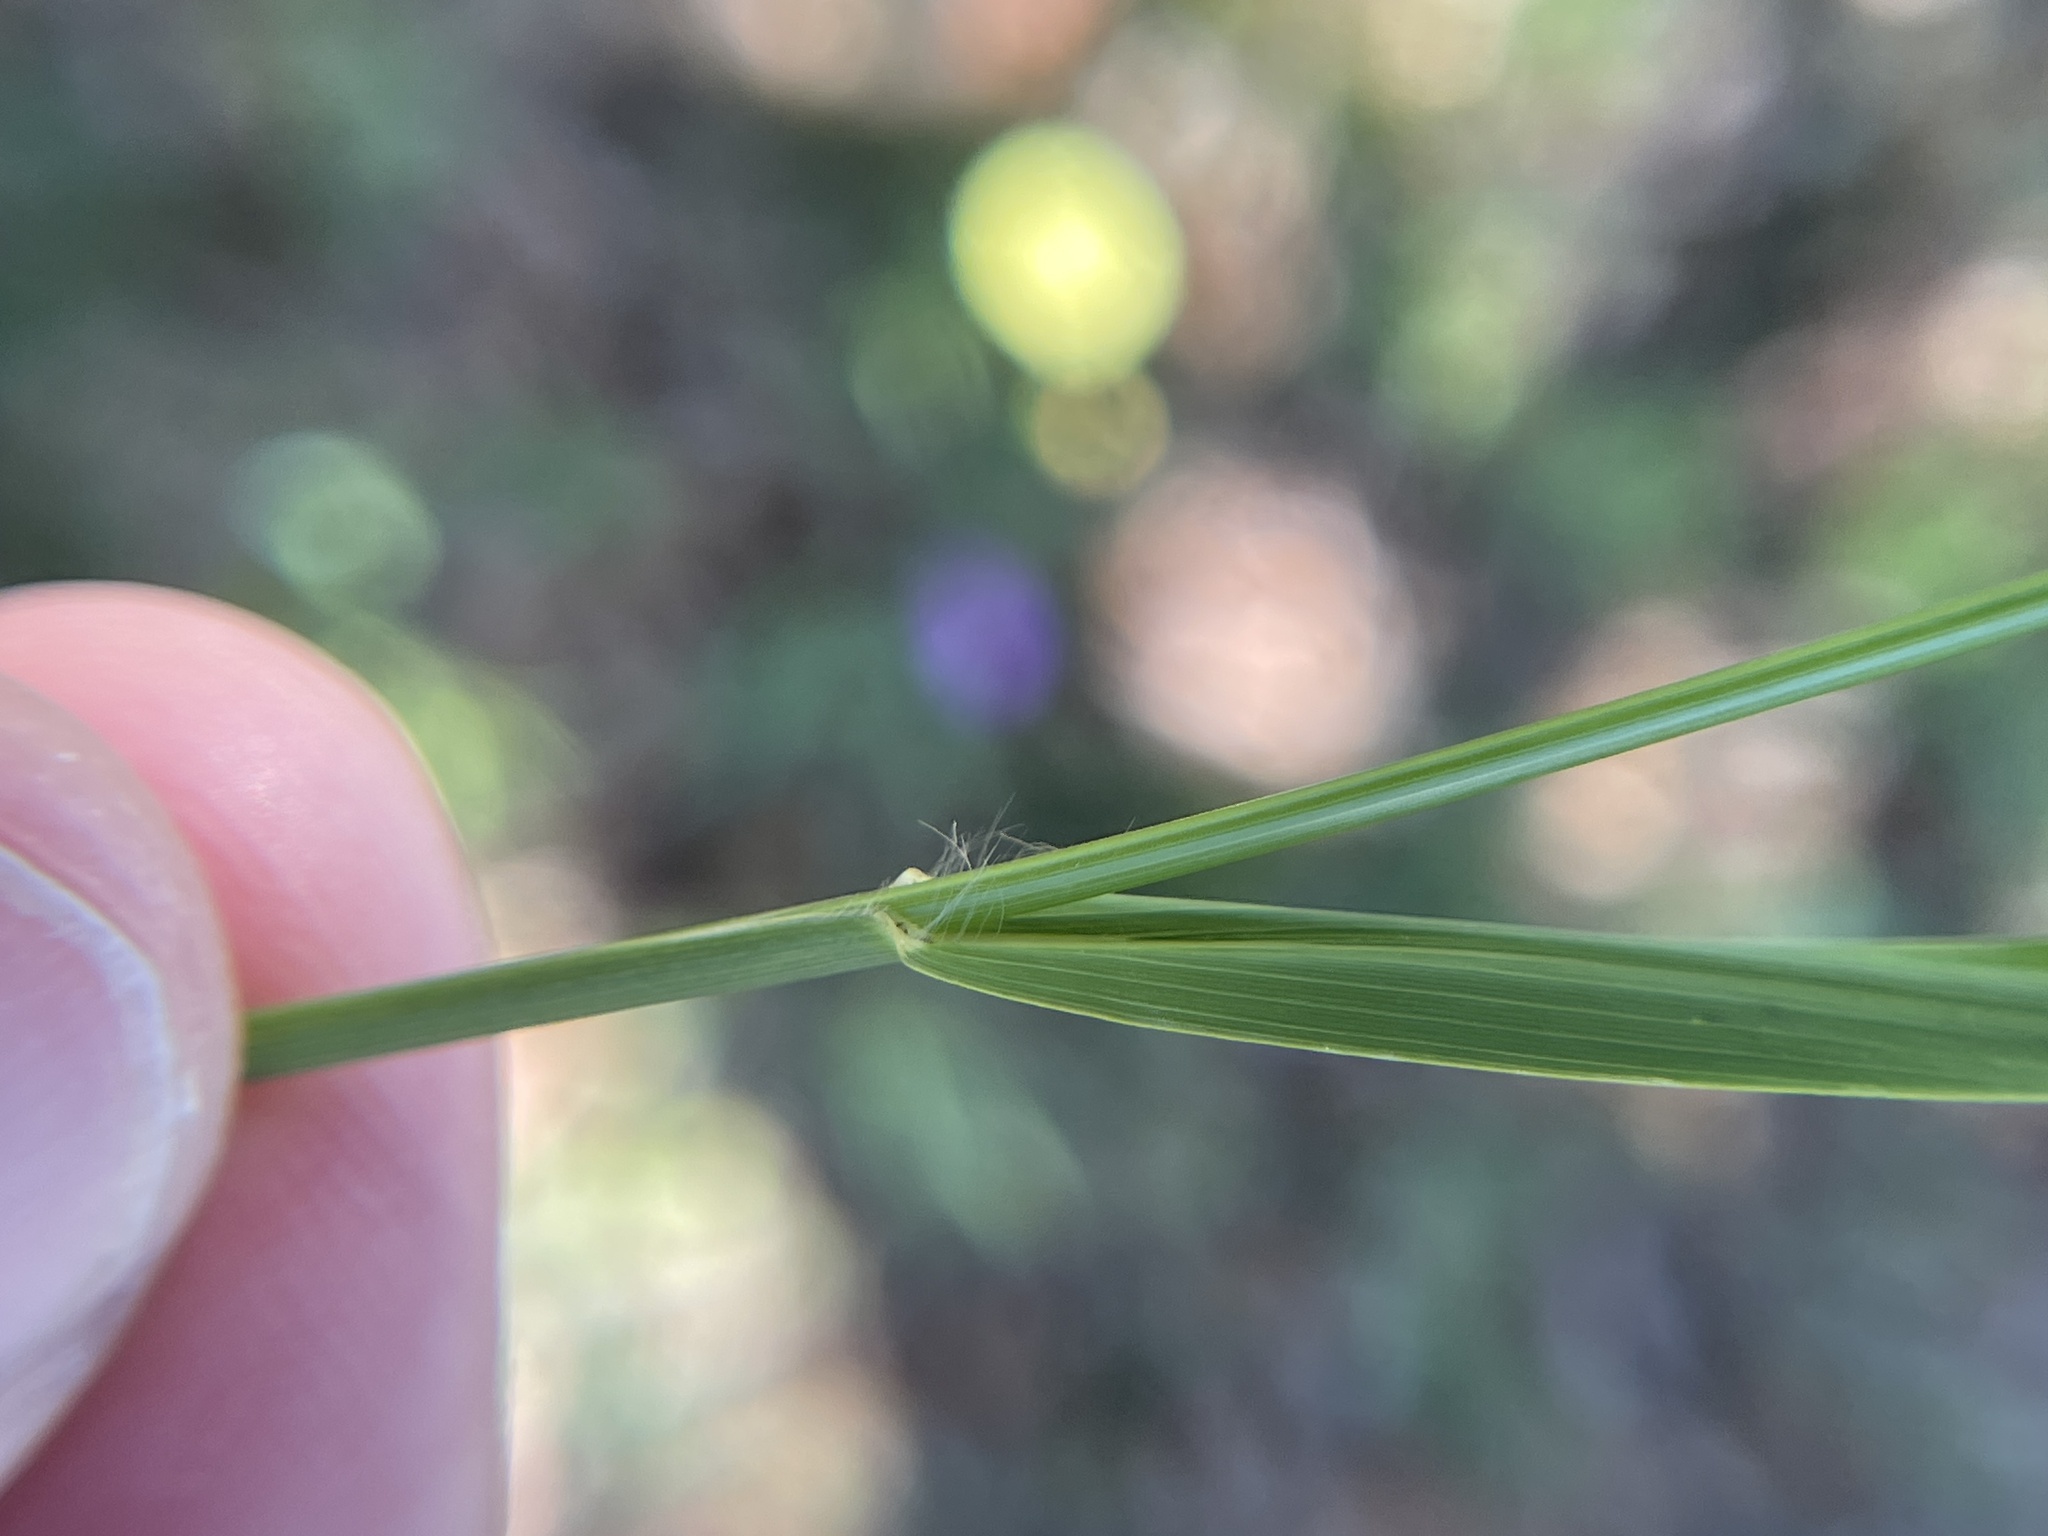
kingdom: Plantae
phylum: Tracheophyta
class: Liliopsida
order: Poales
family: Poaceae
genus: Steinchisma
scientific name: Steinchisma hians
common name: Gaping panic grass
